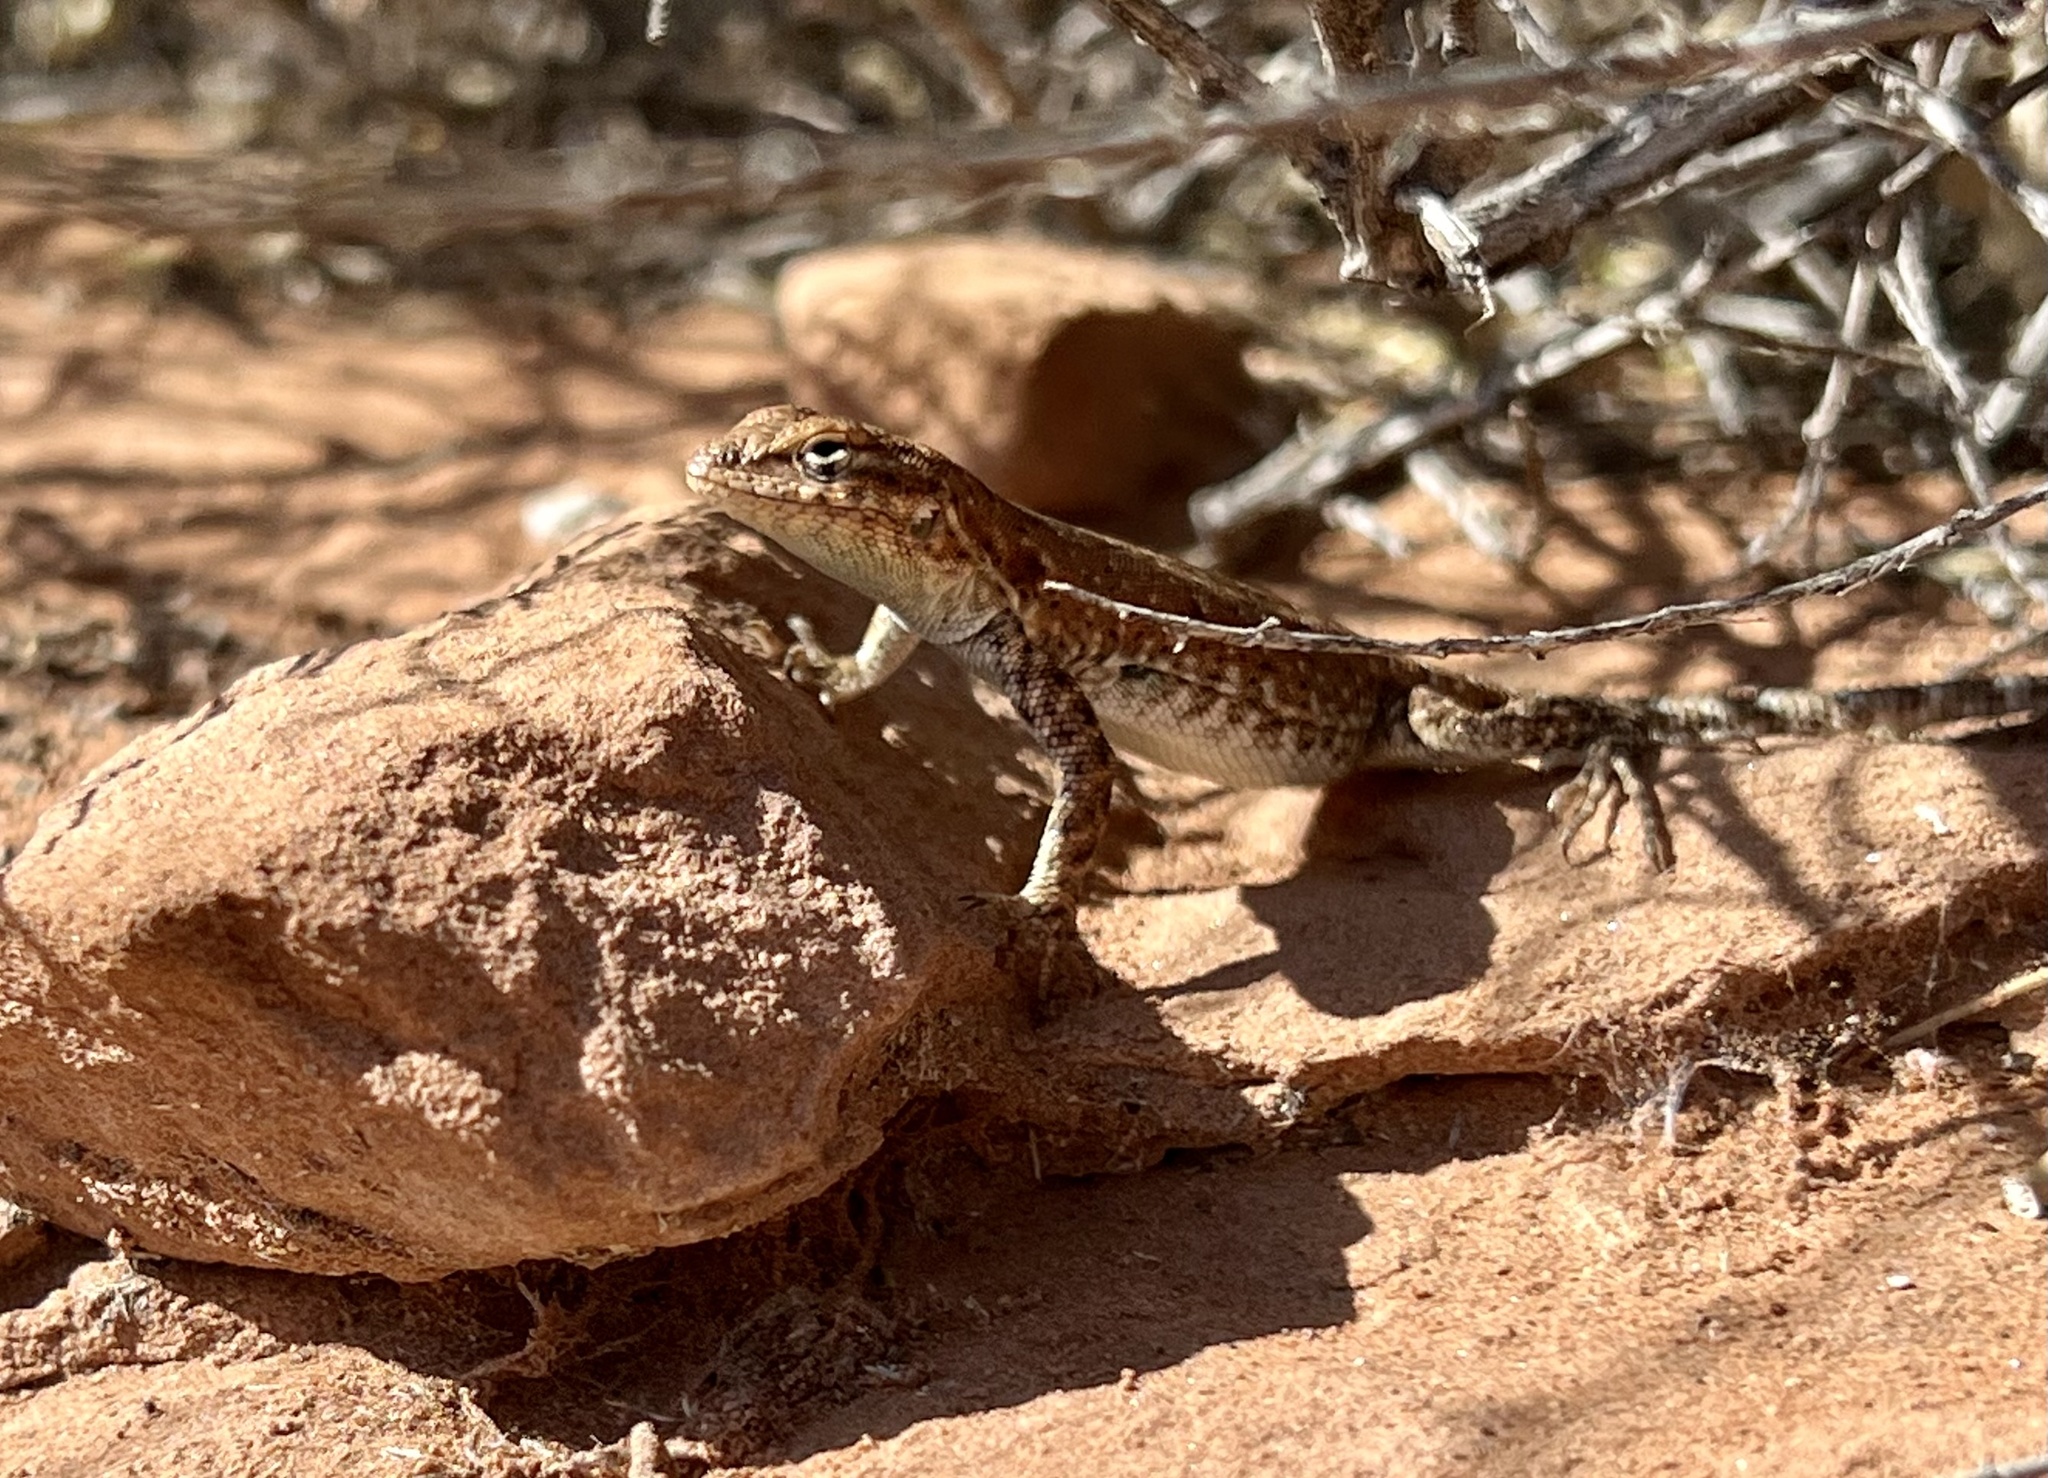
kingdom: Animalia
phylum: Chordata
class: Squamata
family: Phrynosomatidae
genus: Uta
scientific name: Uta stansburiana
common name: Side-blotched lizard
